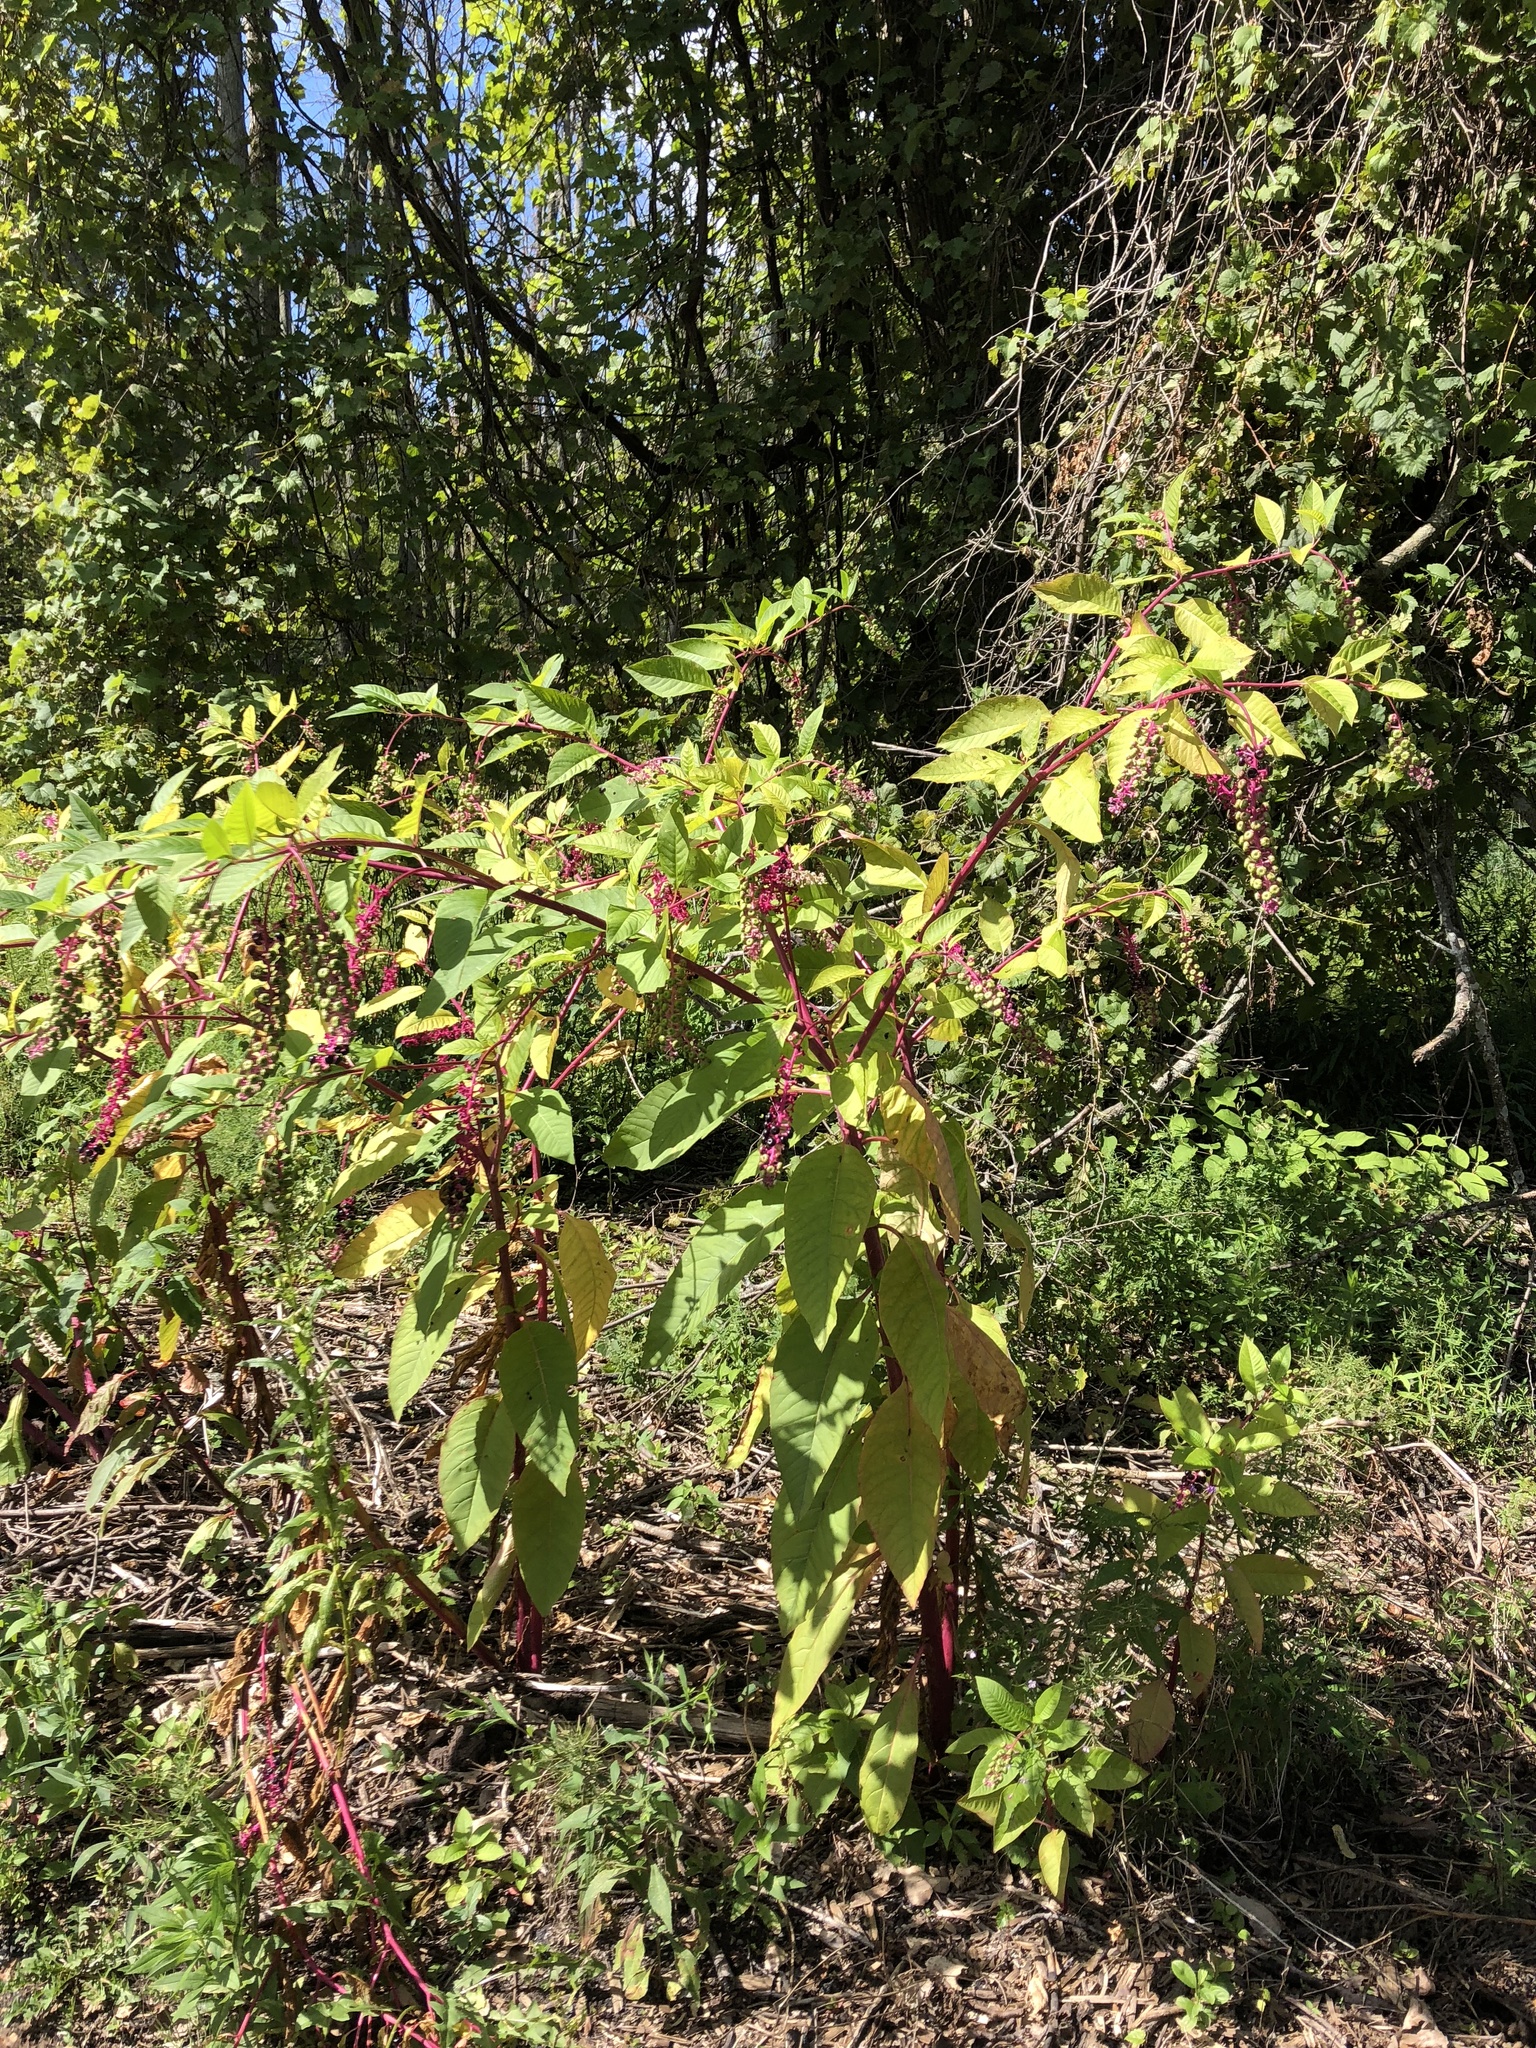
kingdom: Plantae
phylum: Tracheophyta
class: Magnoliopsida
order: Caryophyllales
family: Phytolaccaceae
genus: Phytolacca
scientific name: Phytolacca americana
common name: American pokeweed
